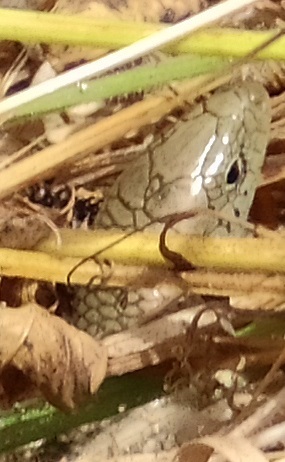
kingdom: Animalia
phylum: Chordata
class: Squamata
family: Scincidae
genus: Chalcides
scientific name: Chalcides striatus
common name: Western (or iberian) three-toed skink
